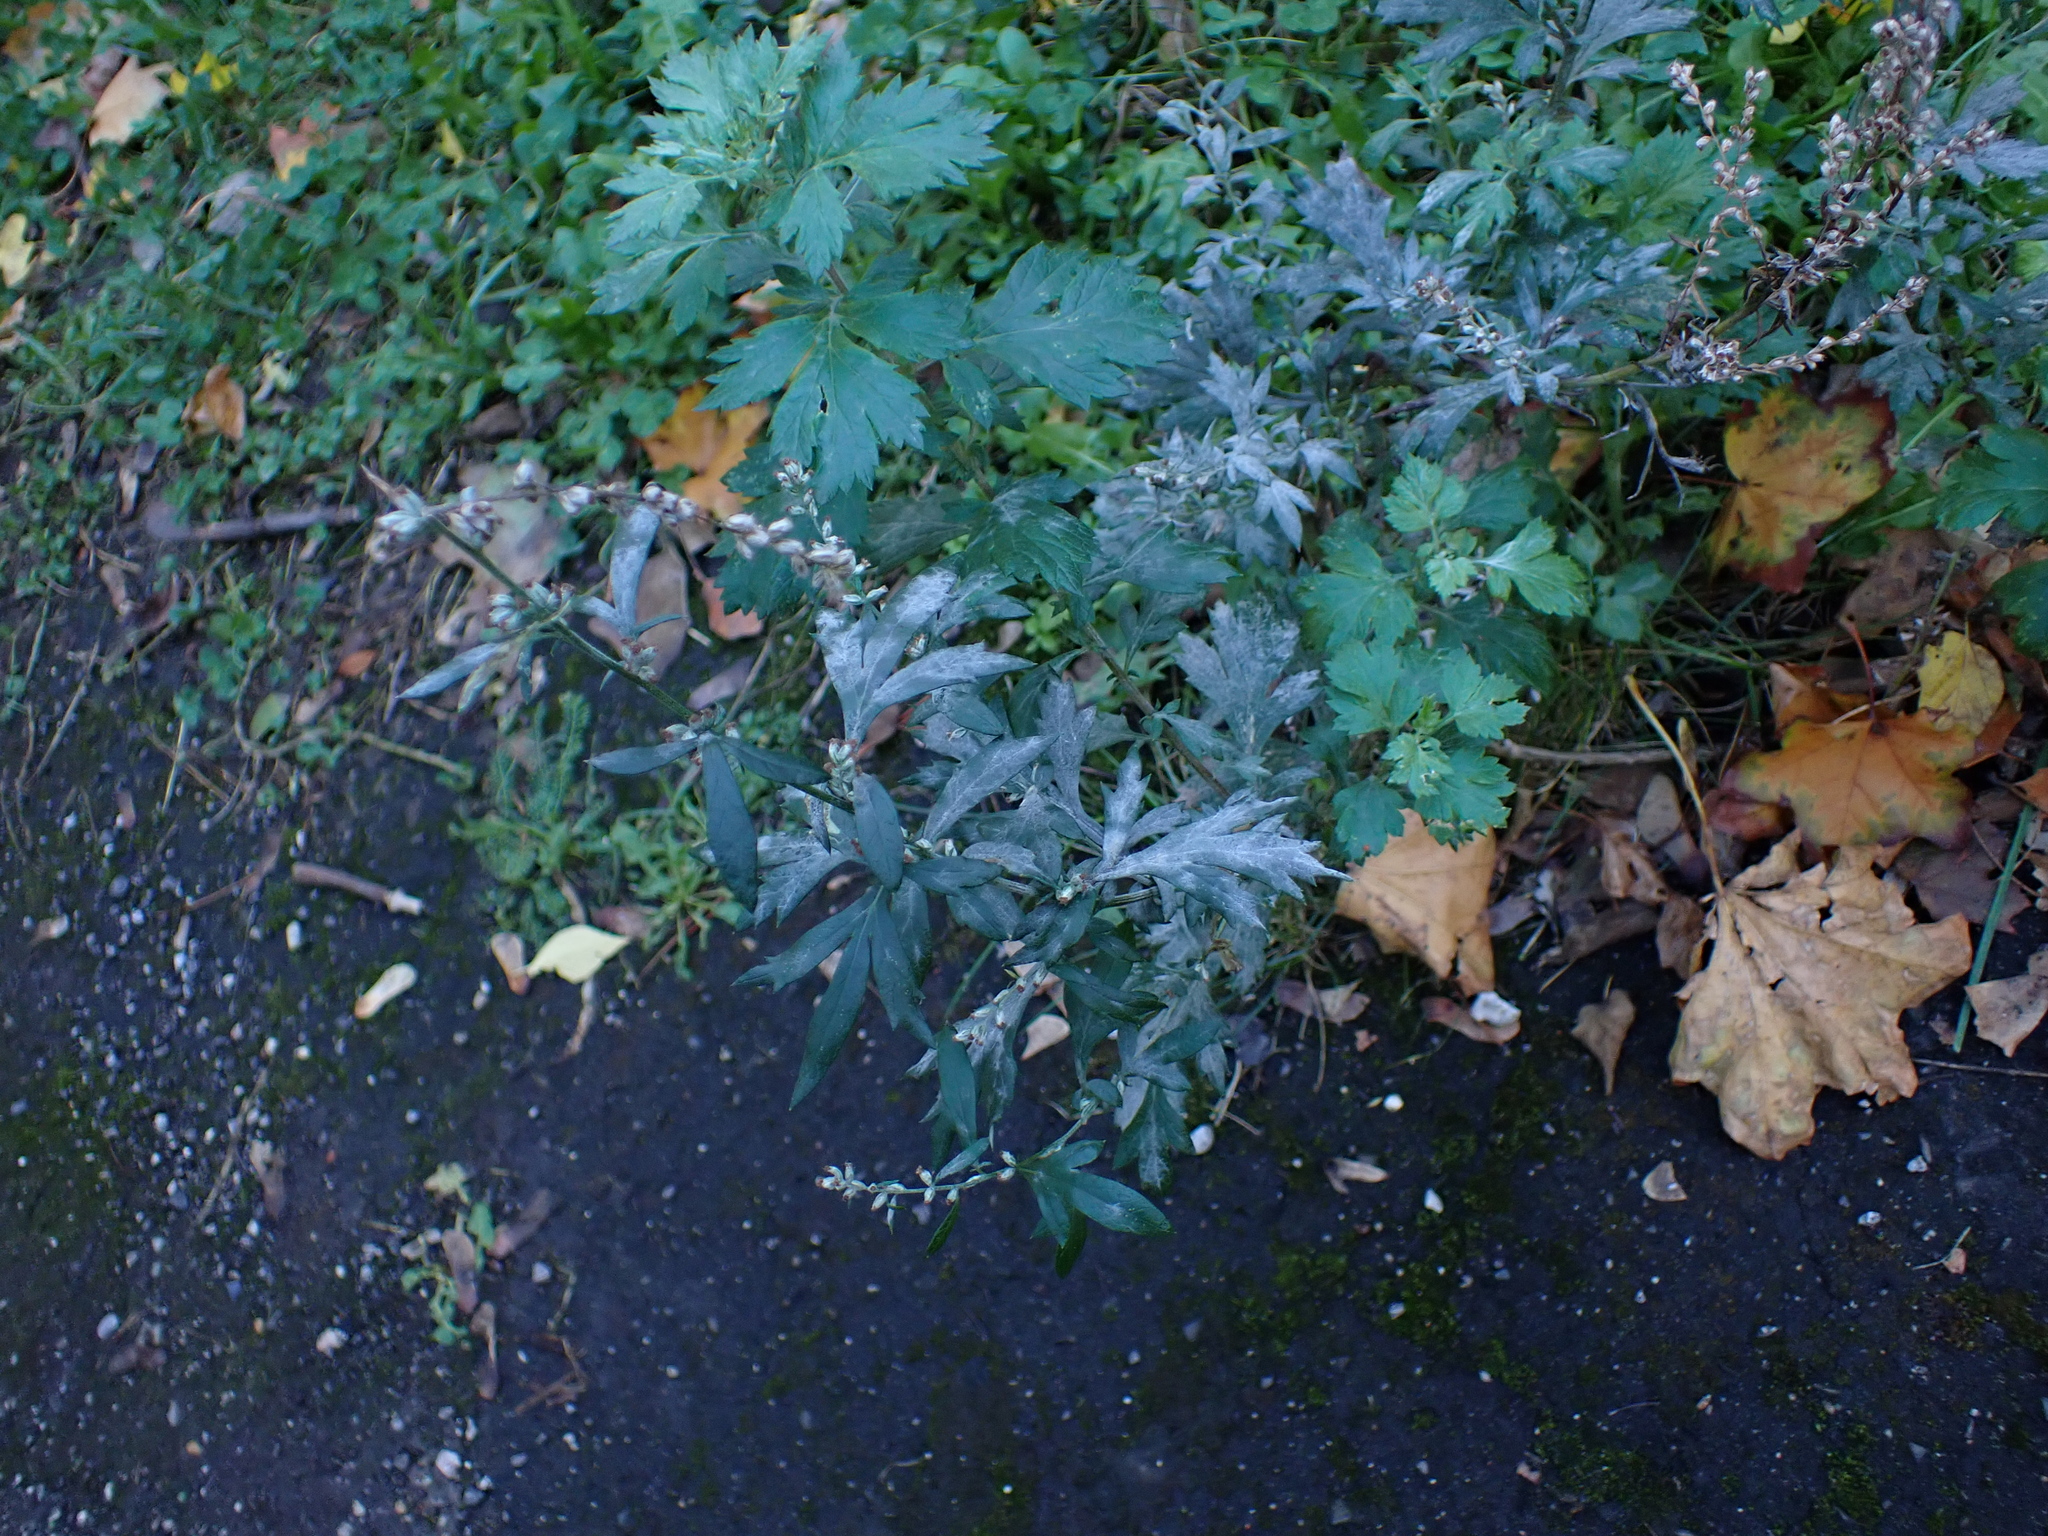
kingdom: Fungi
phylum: Ascomycota
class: Leotiomycetes
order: Helotiales
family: Erysiphaceae
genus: Golovinomyces
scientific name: Golovinomyces artemisiae
